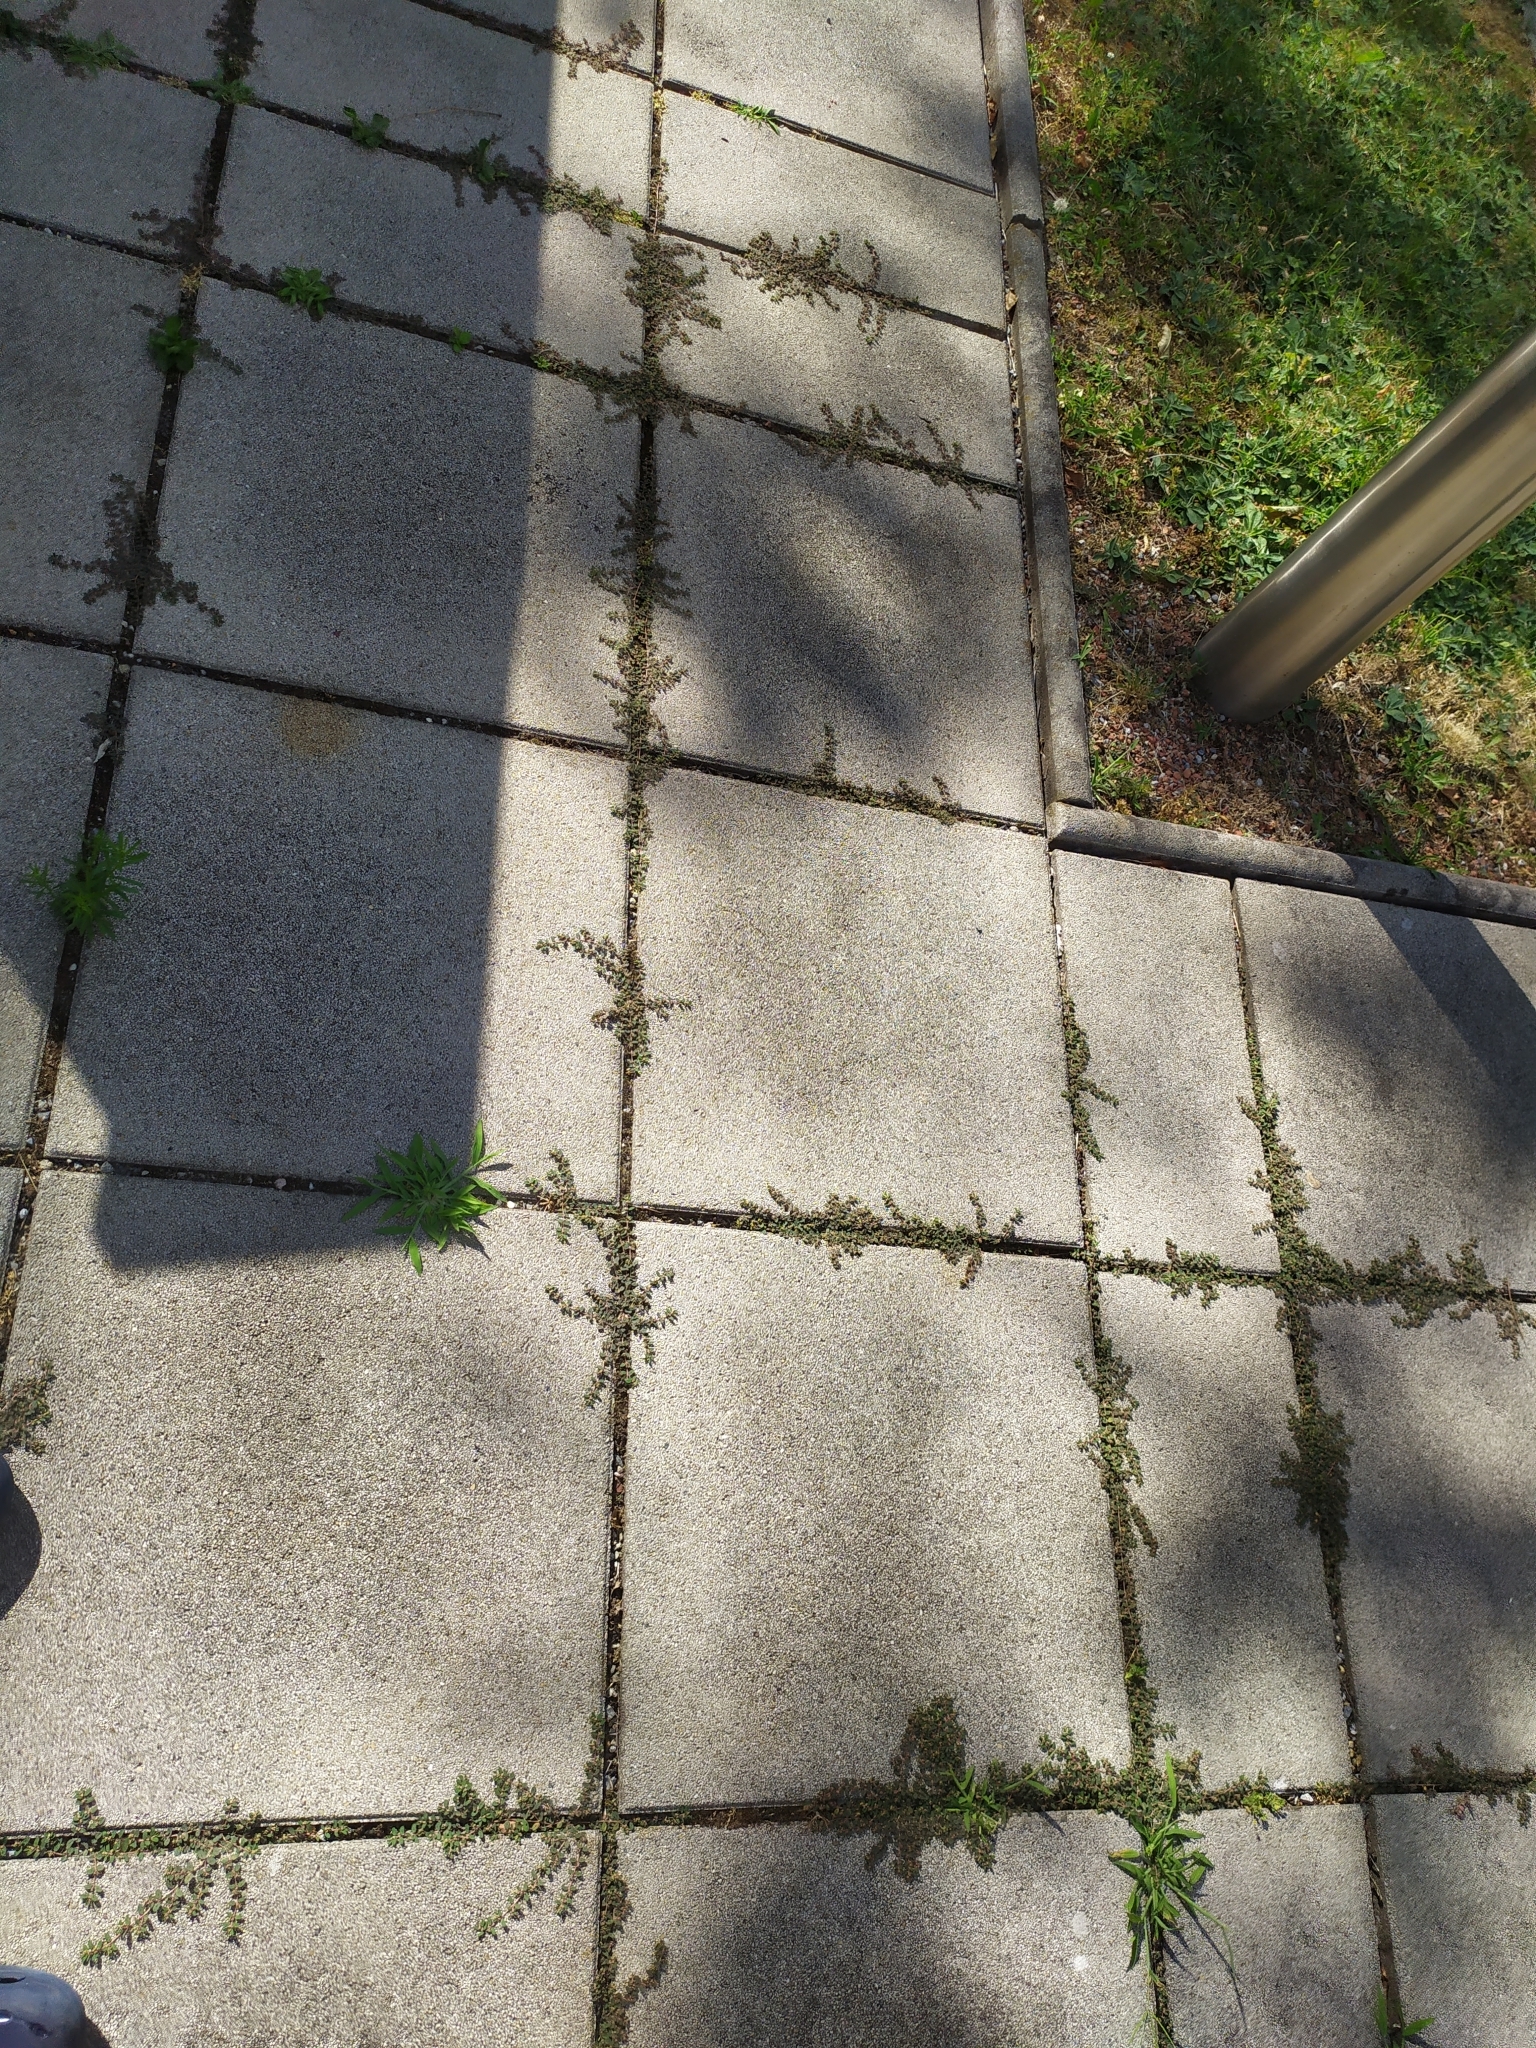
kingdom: Plantae
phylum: Tracheophyta
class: Magnoliopsida
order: Malpighiales
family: Euphorbiaceae
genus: Euphorbia
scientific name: Euphorbia maculata
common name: Spotted spurge
